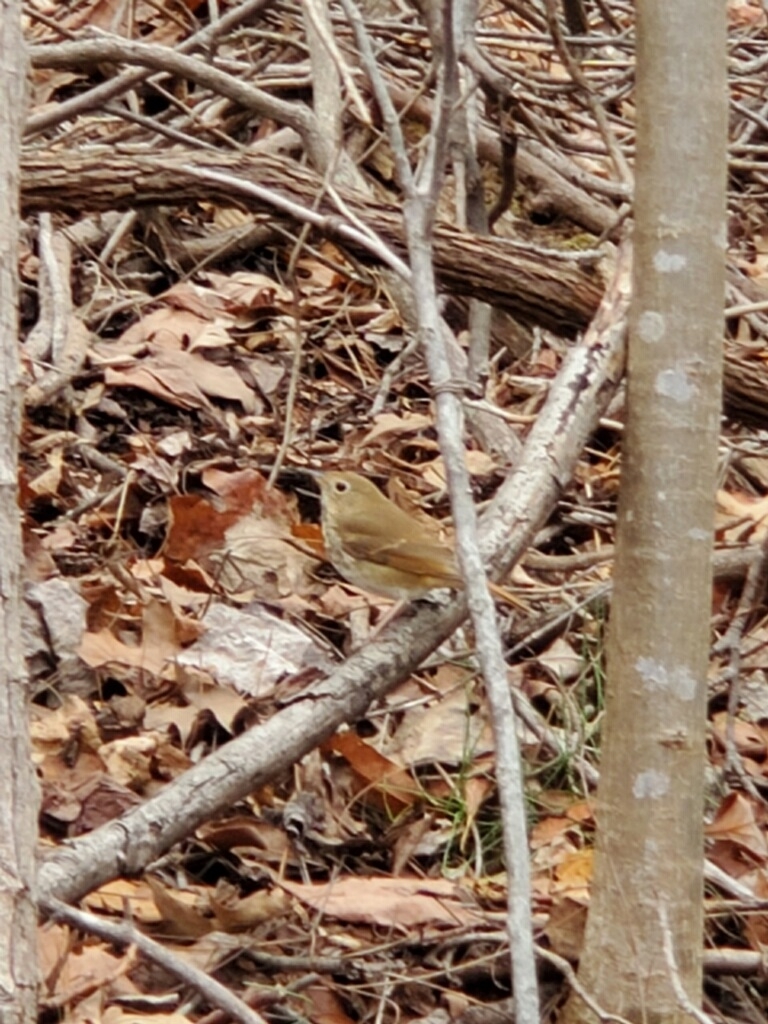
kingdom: Animalia
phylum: Chordata
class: Aves
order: Passeriformes
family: Turdidae
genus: Catharus
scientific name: Catharus guttatus
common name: Hermit thrush
